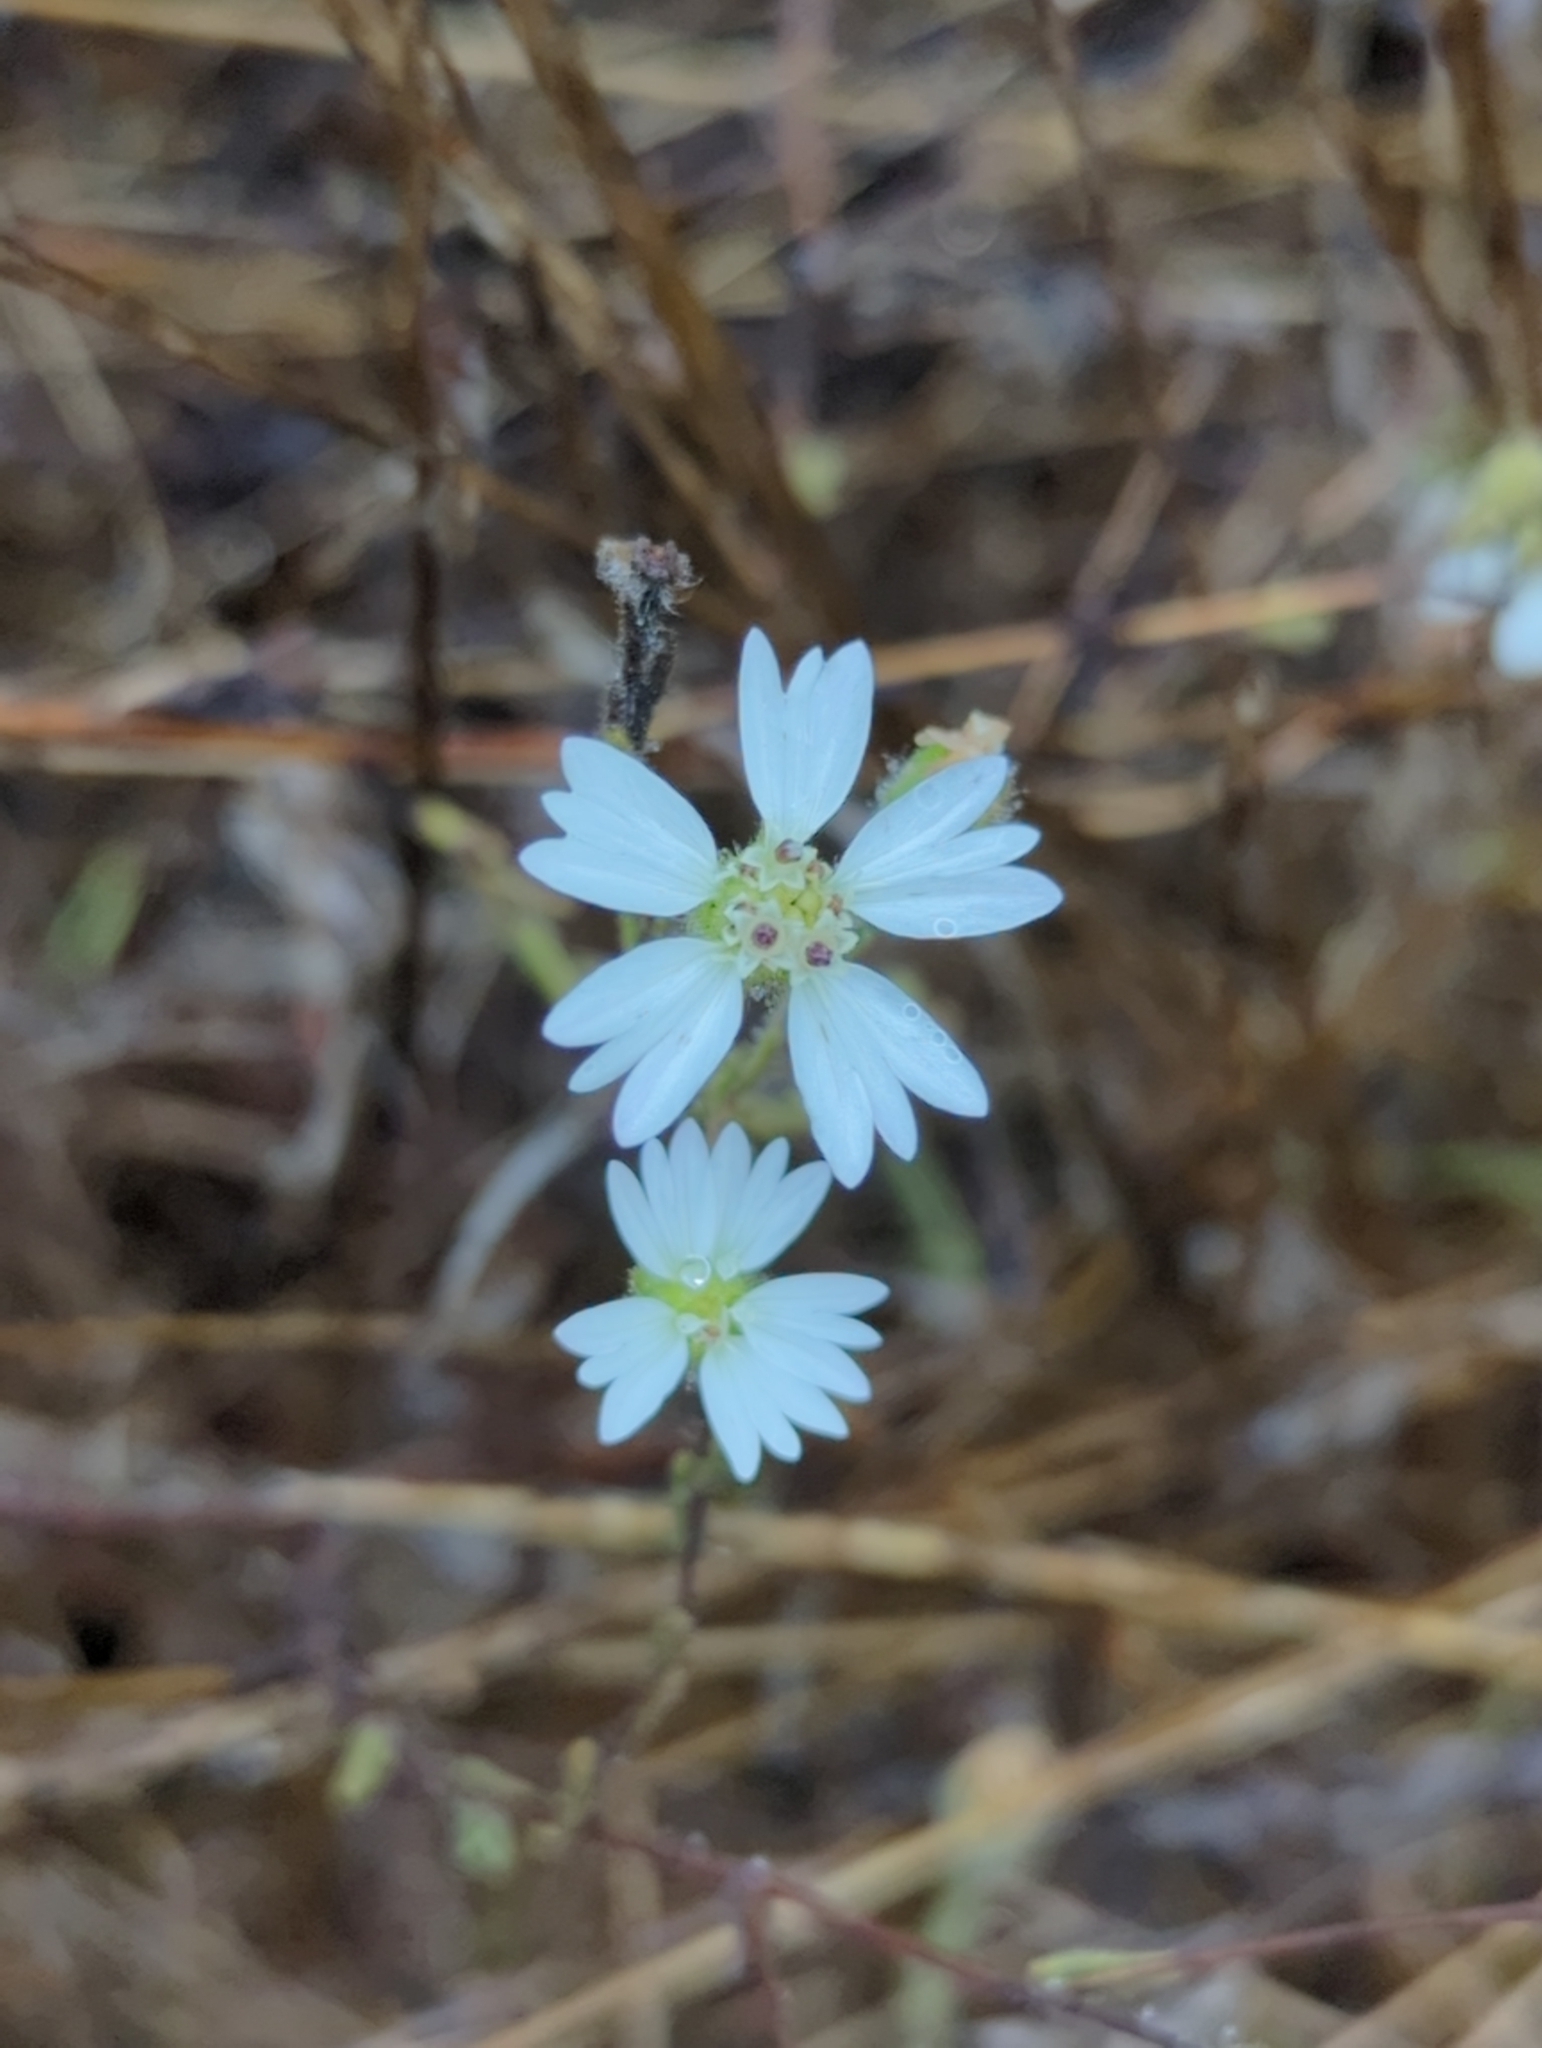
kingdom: Plantae
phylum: Tracheophyta
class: Magnoliopsida
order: Asterales
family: Asteraceae
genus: Hemizonia
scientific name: Hemizonia congesta
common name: Hayfield tarweed
